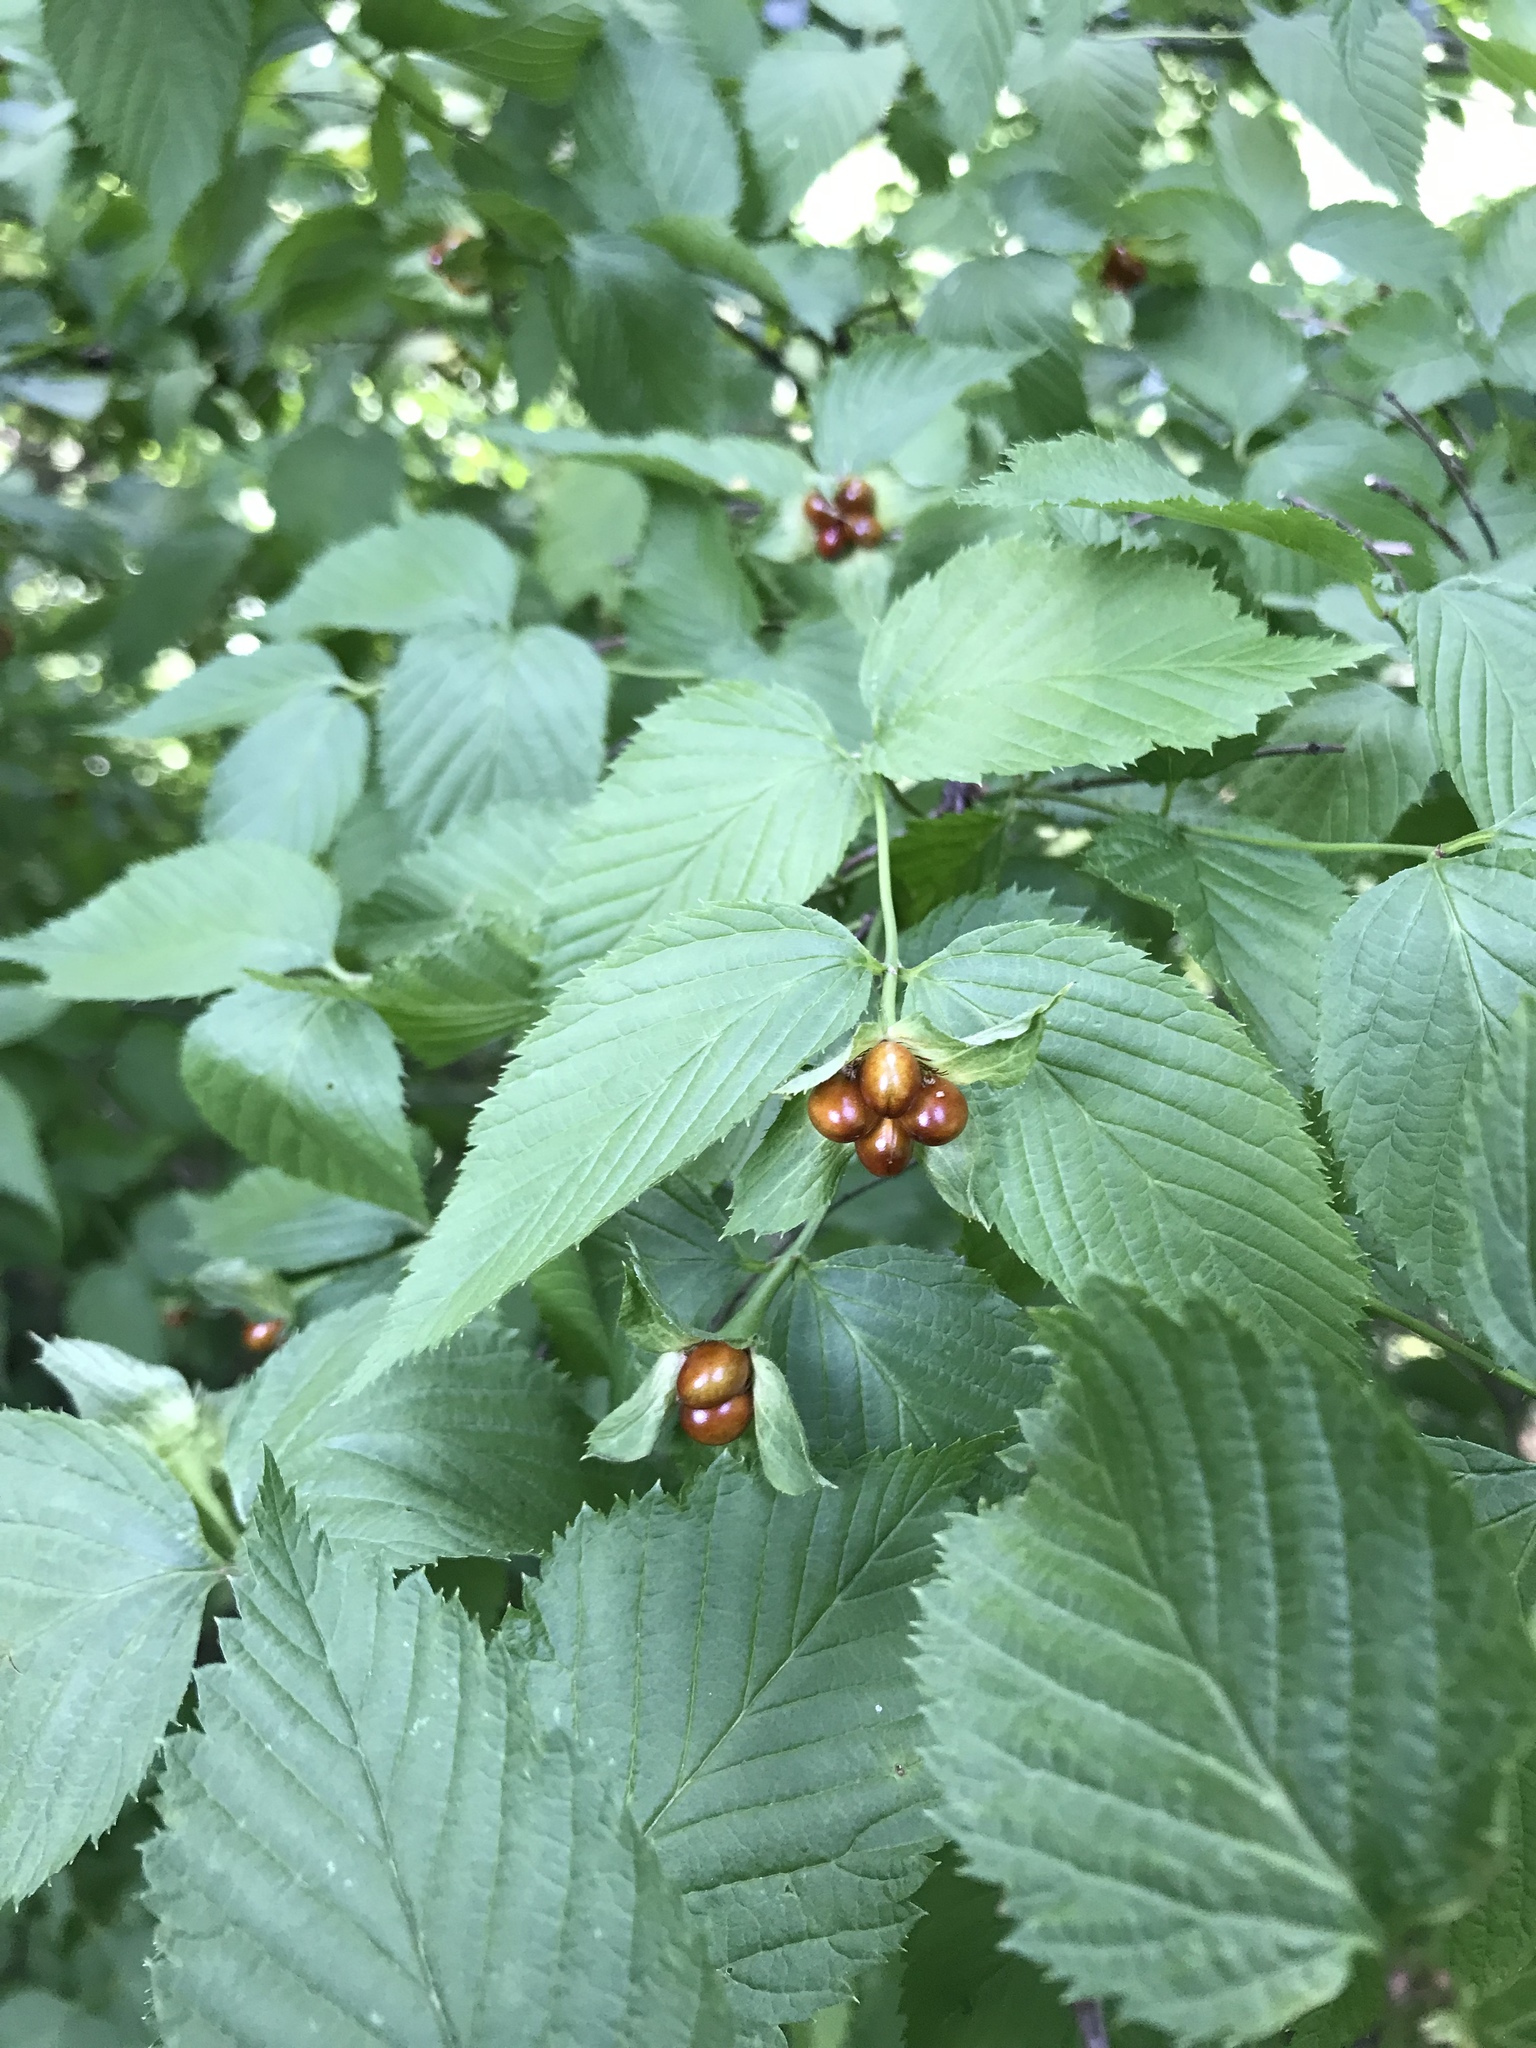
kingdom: Plantae
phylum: Tracheophyta
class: Magnoliopsida
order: Rosales
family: Rosaceae
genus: Rhodotypos
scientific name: Rhodotypos scandens
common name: Jetbead
